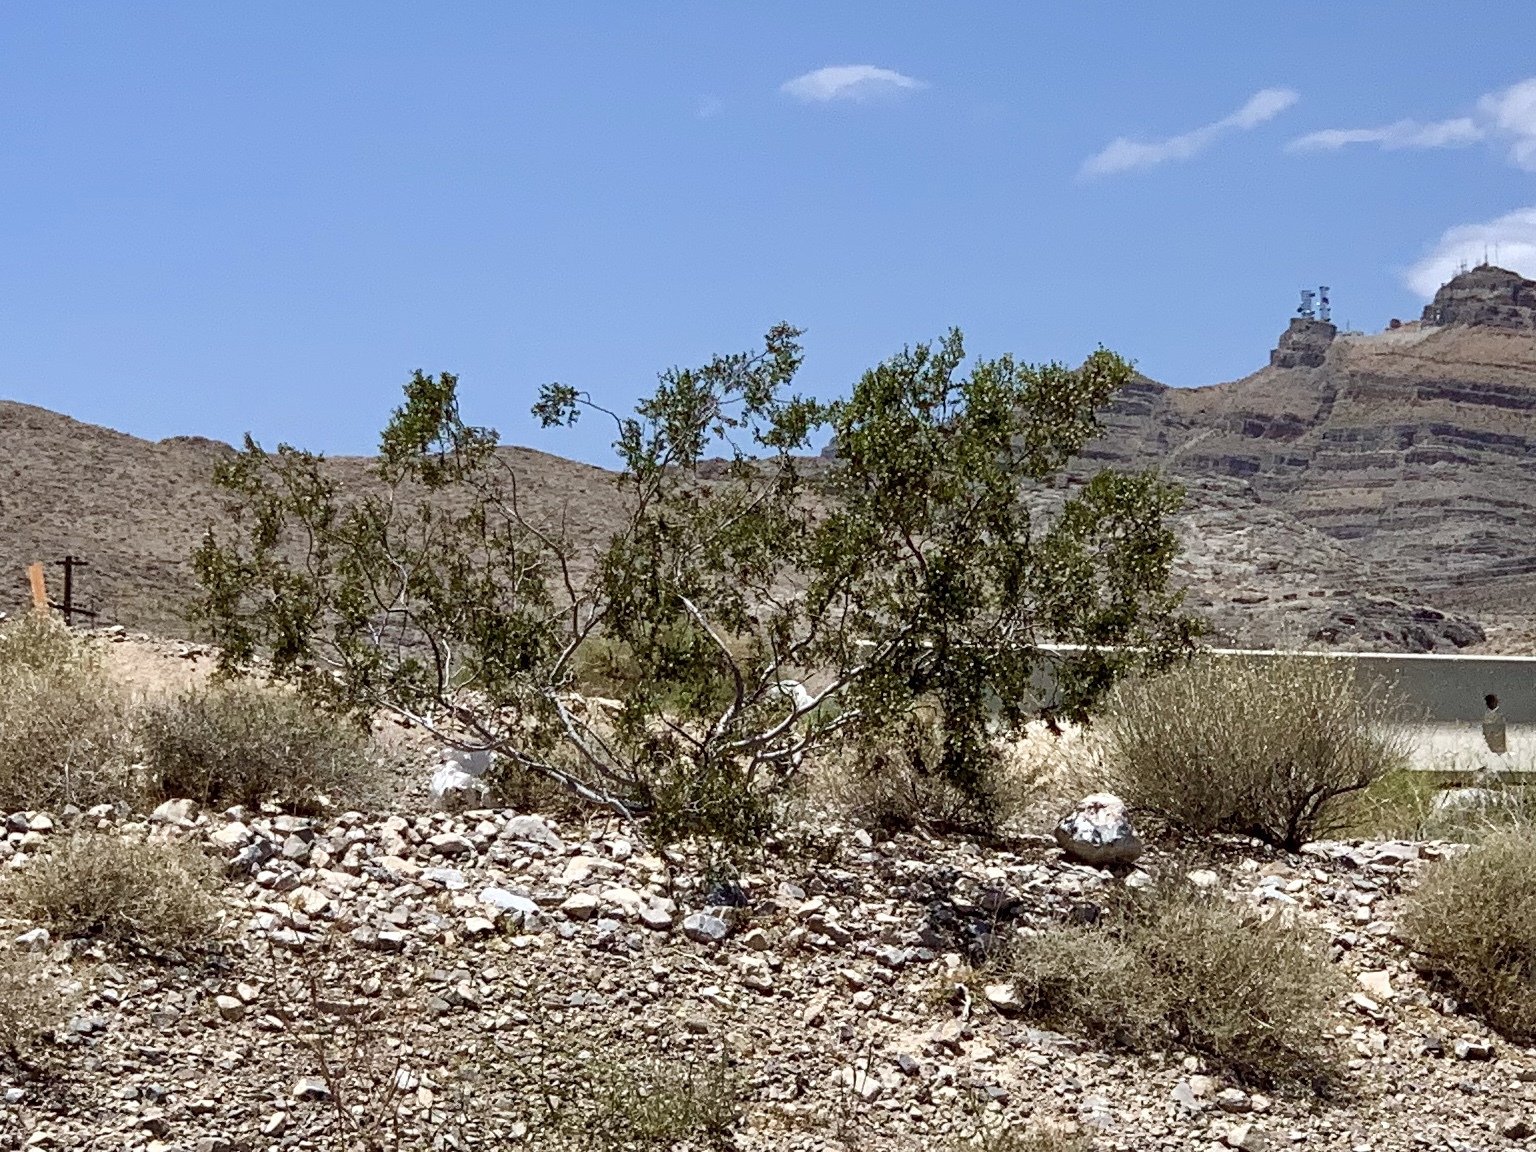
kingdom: Plantae
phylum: Tracheophyta
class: Magnoliopsida
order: Zygophyllales
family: Zygophyllaceae
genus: Larrea
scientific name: Larrea tridentata
